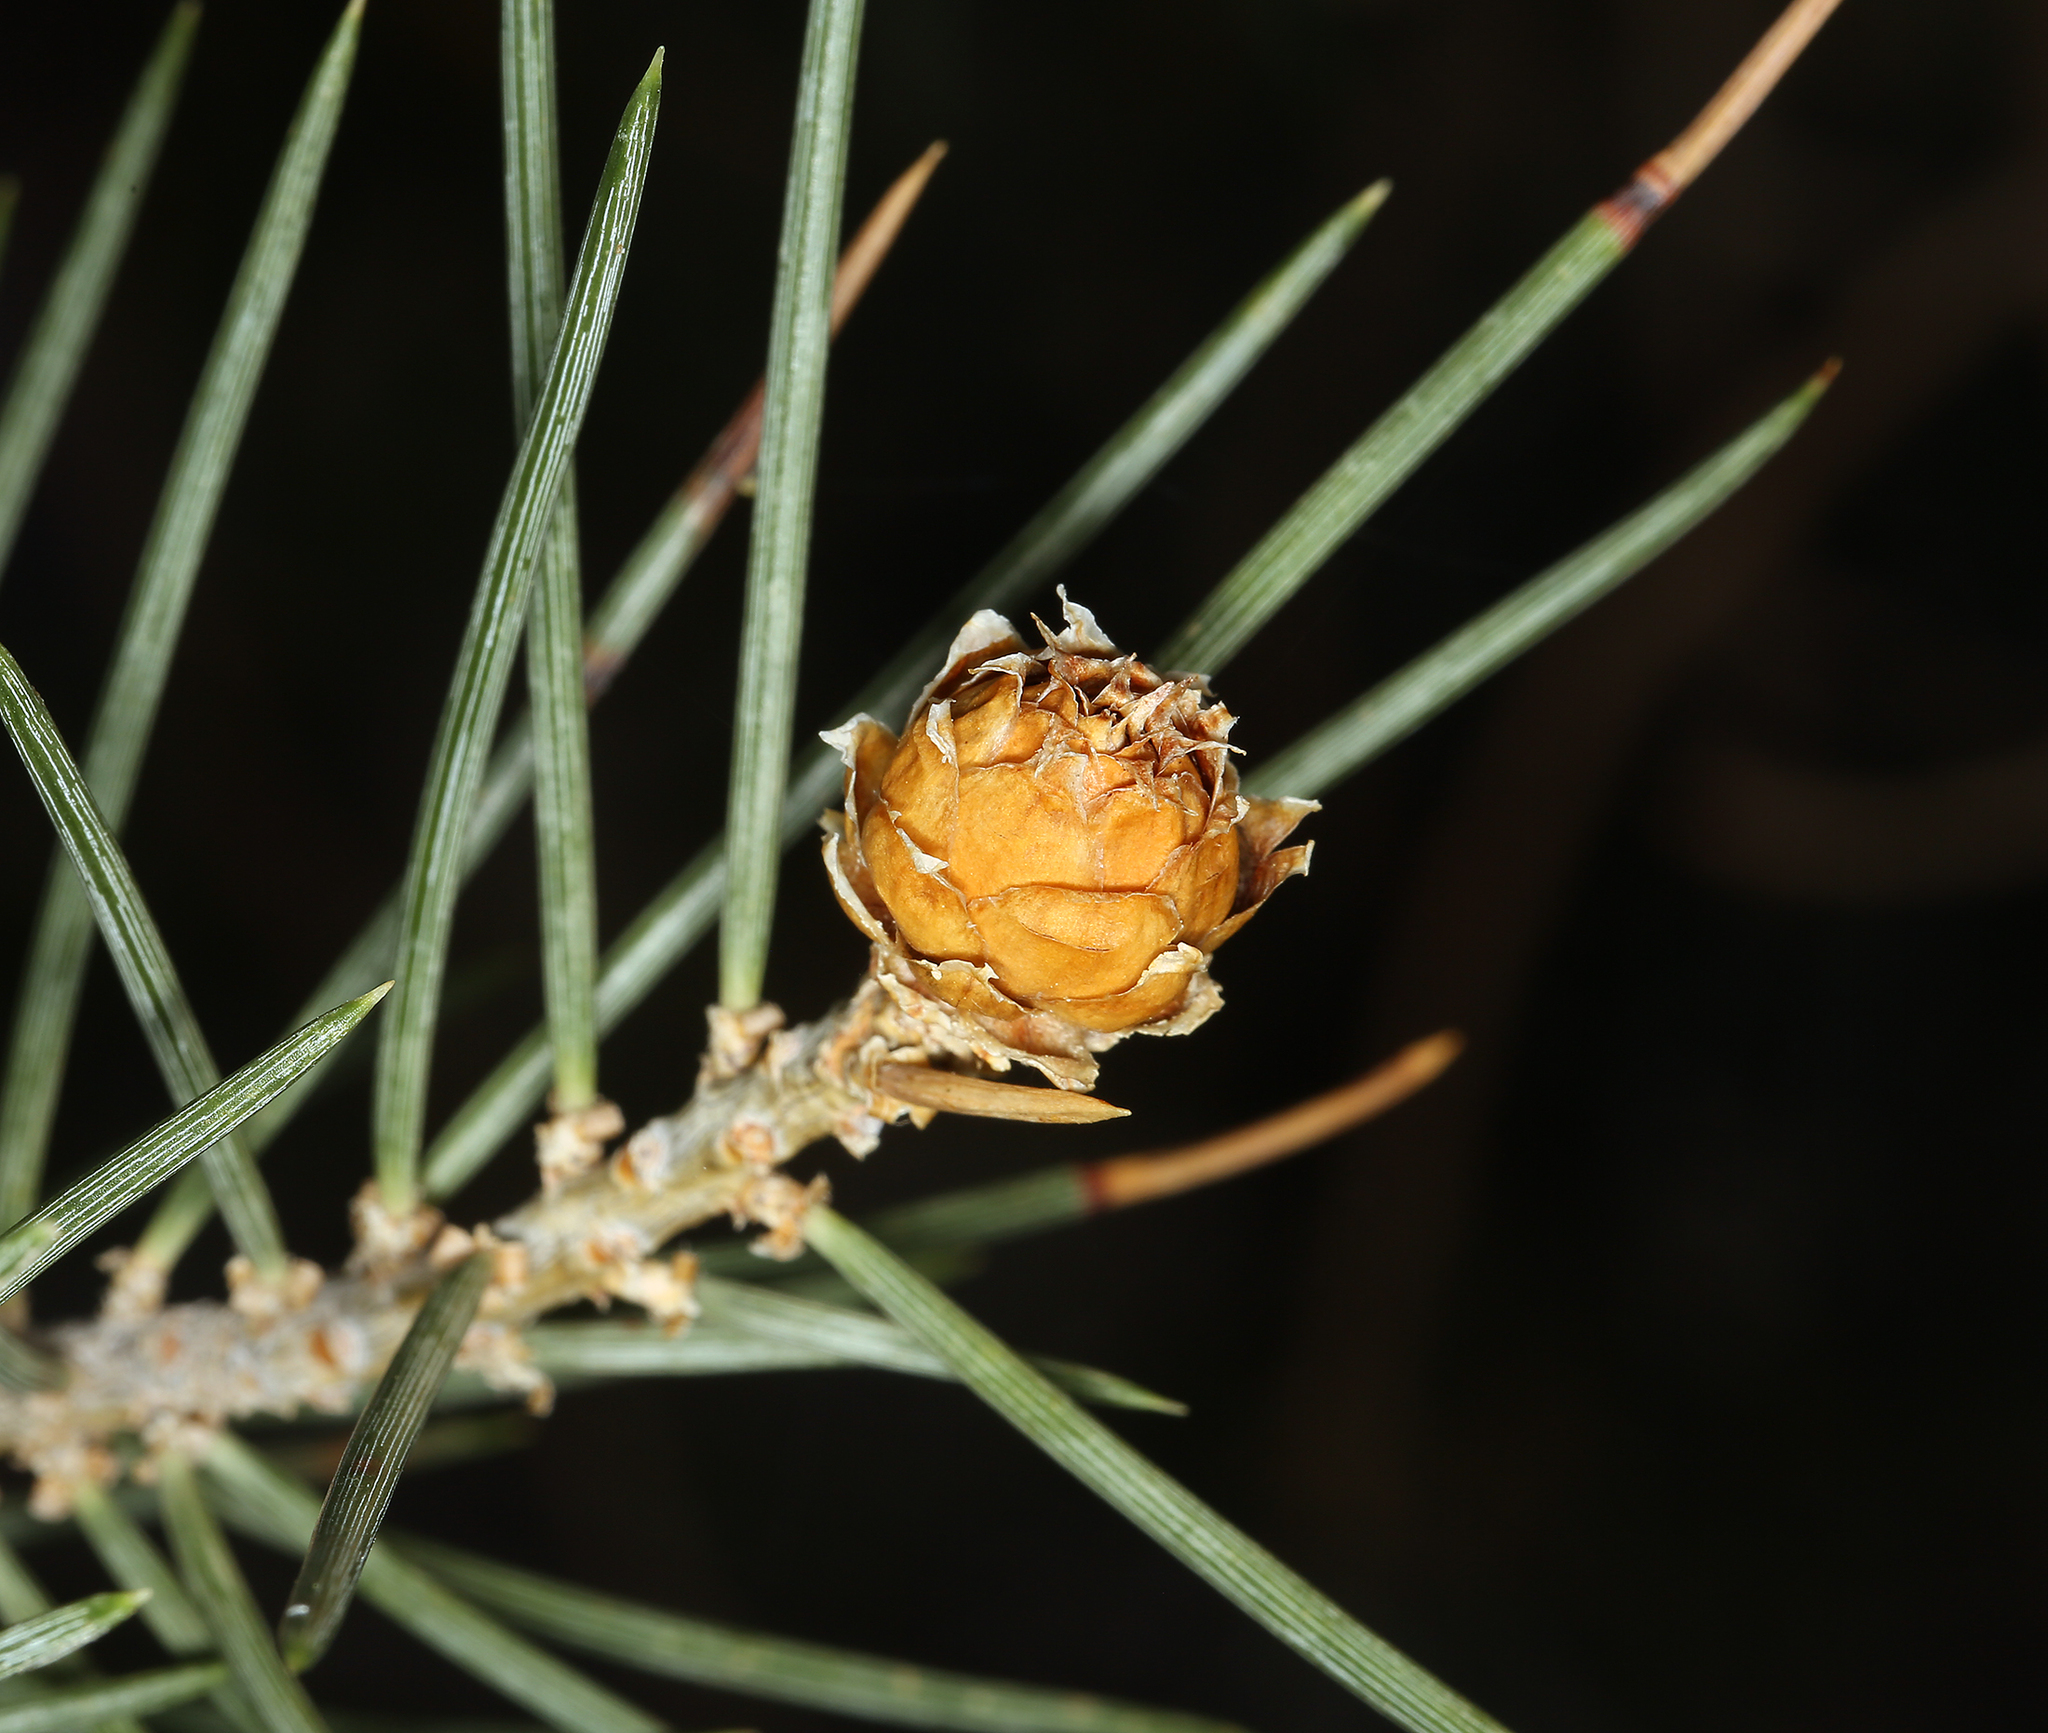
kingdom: Plantae
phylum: Tracheophyta
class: Pinopsida
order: Pinales
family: Pinaceae
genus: Pinus
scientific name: Pinus monophylla
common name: One-leaved nut pine
